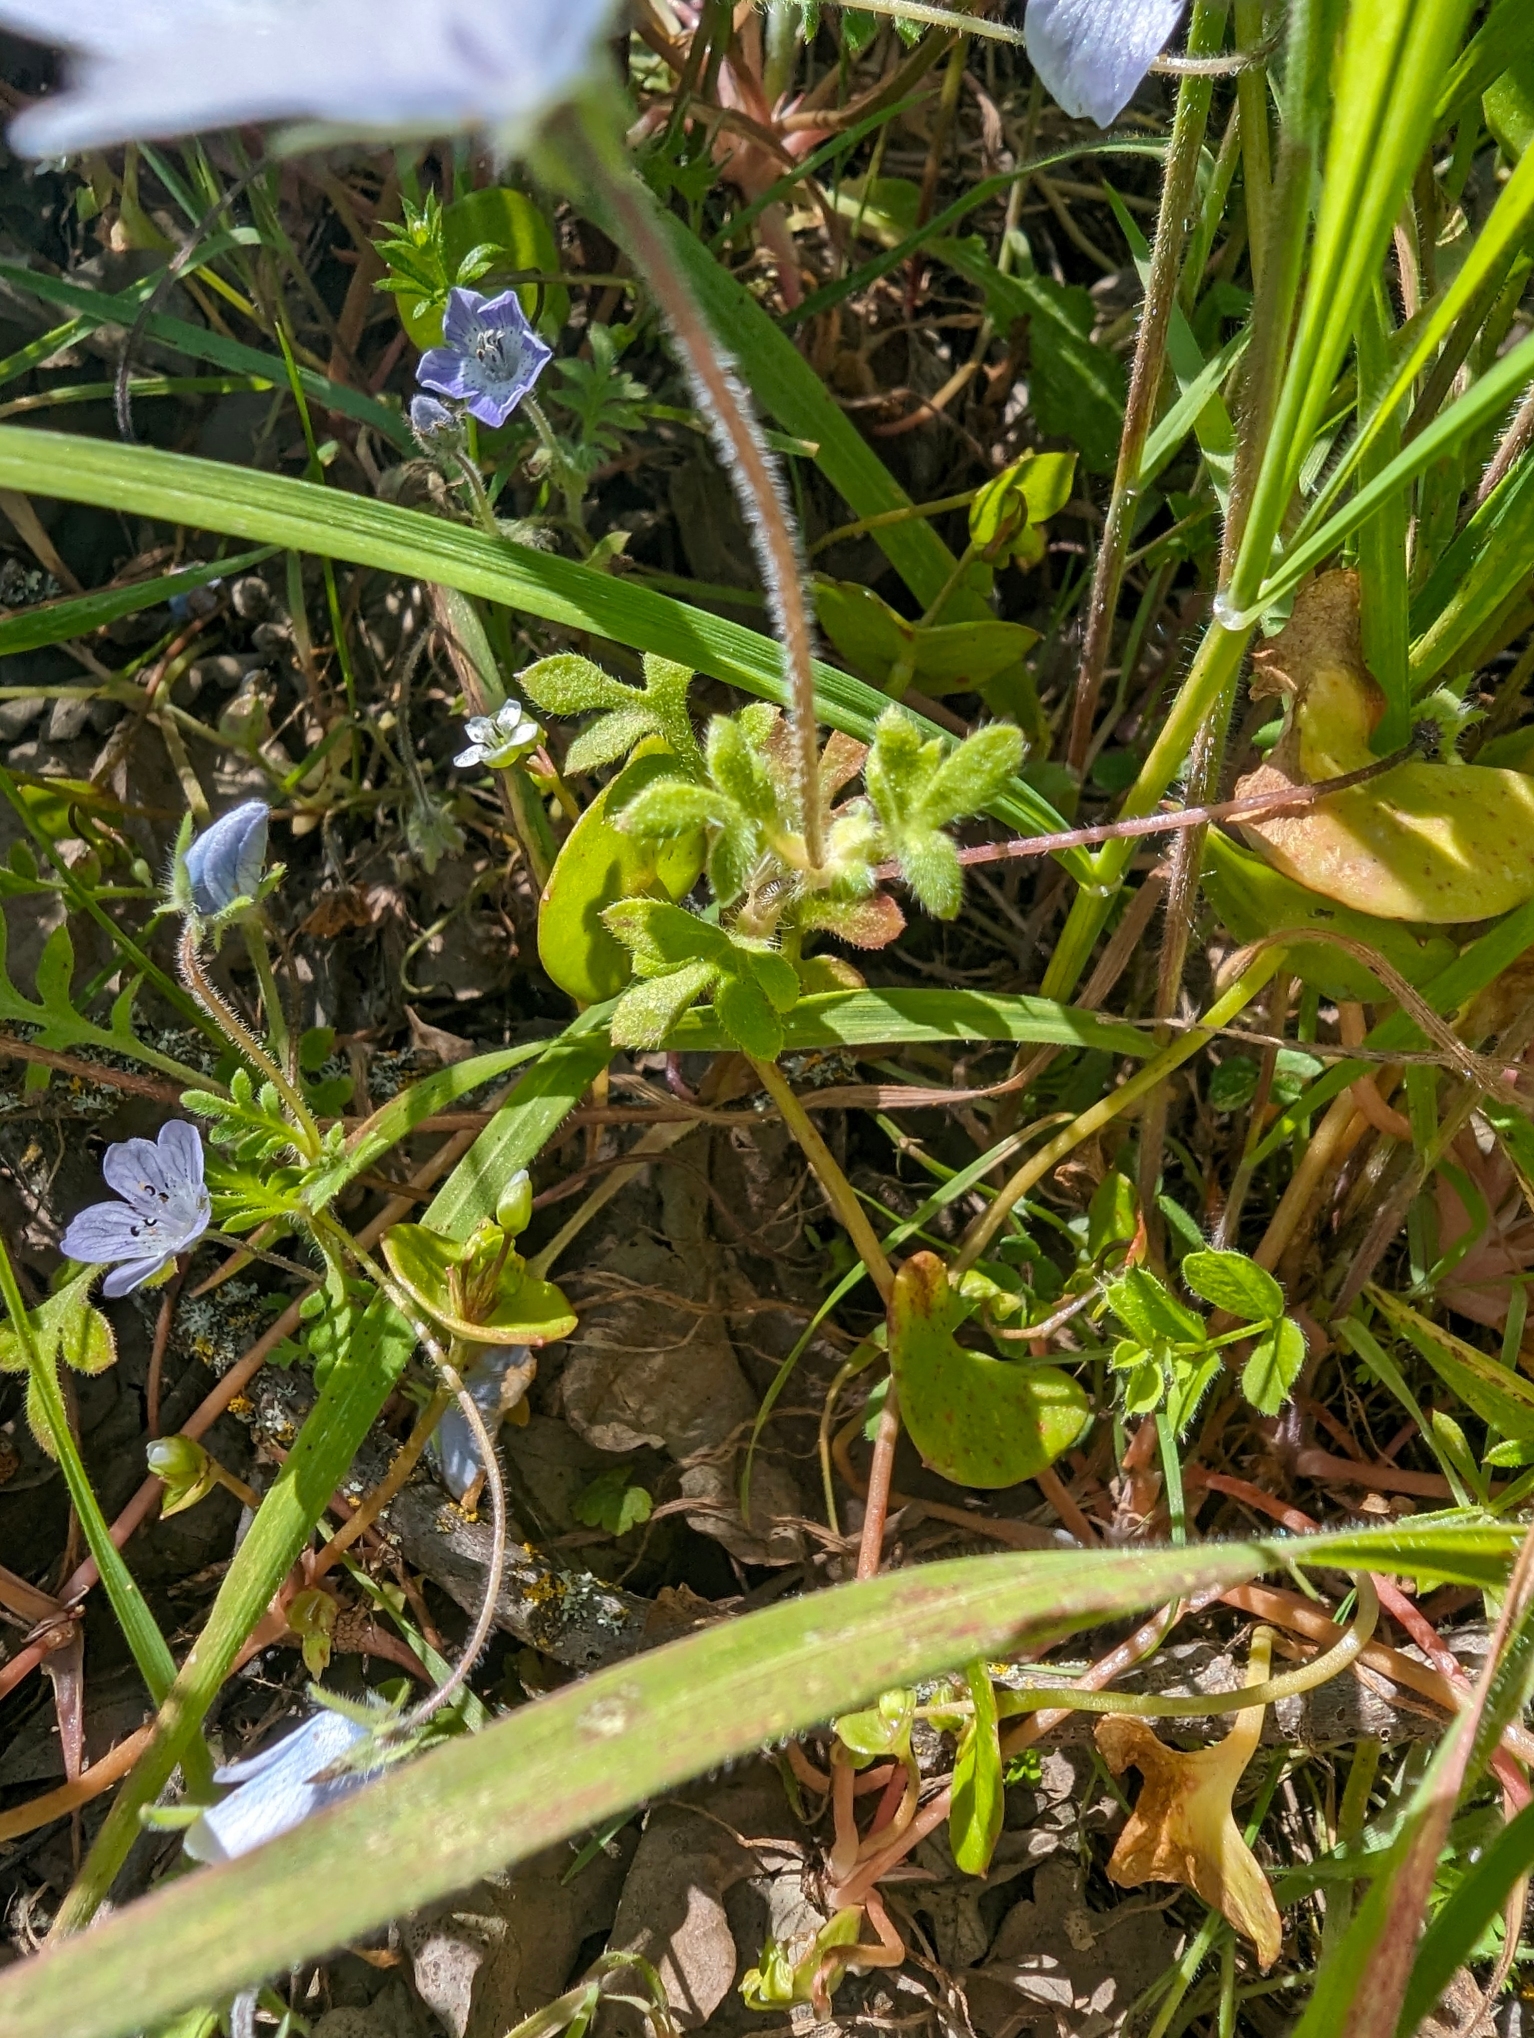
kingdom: Plantae
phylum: Tracheophyta
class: Magnoliopsida
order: Boraginales
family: Hydrophyllaceae
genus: Nemophila
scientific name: Nemophila menziesii
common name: Baby's-blue-eyes
